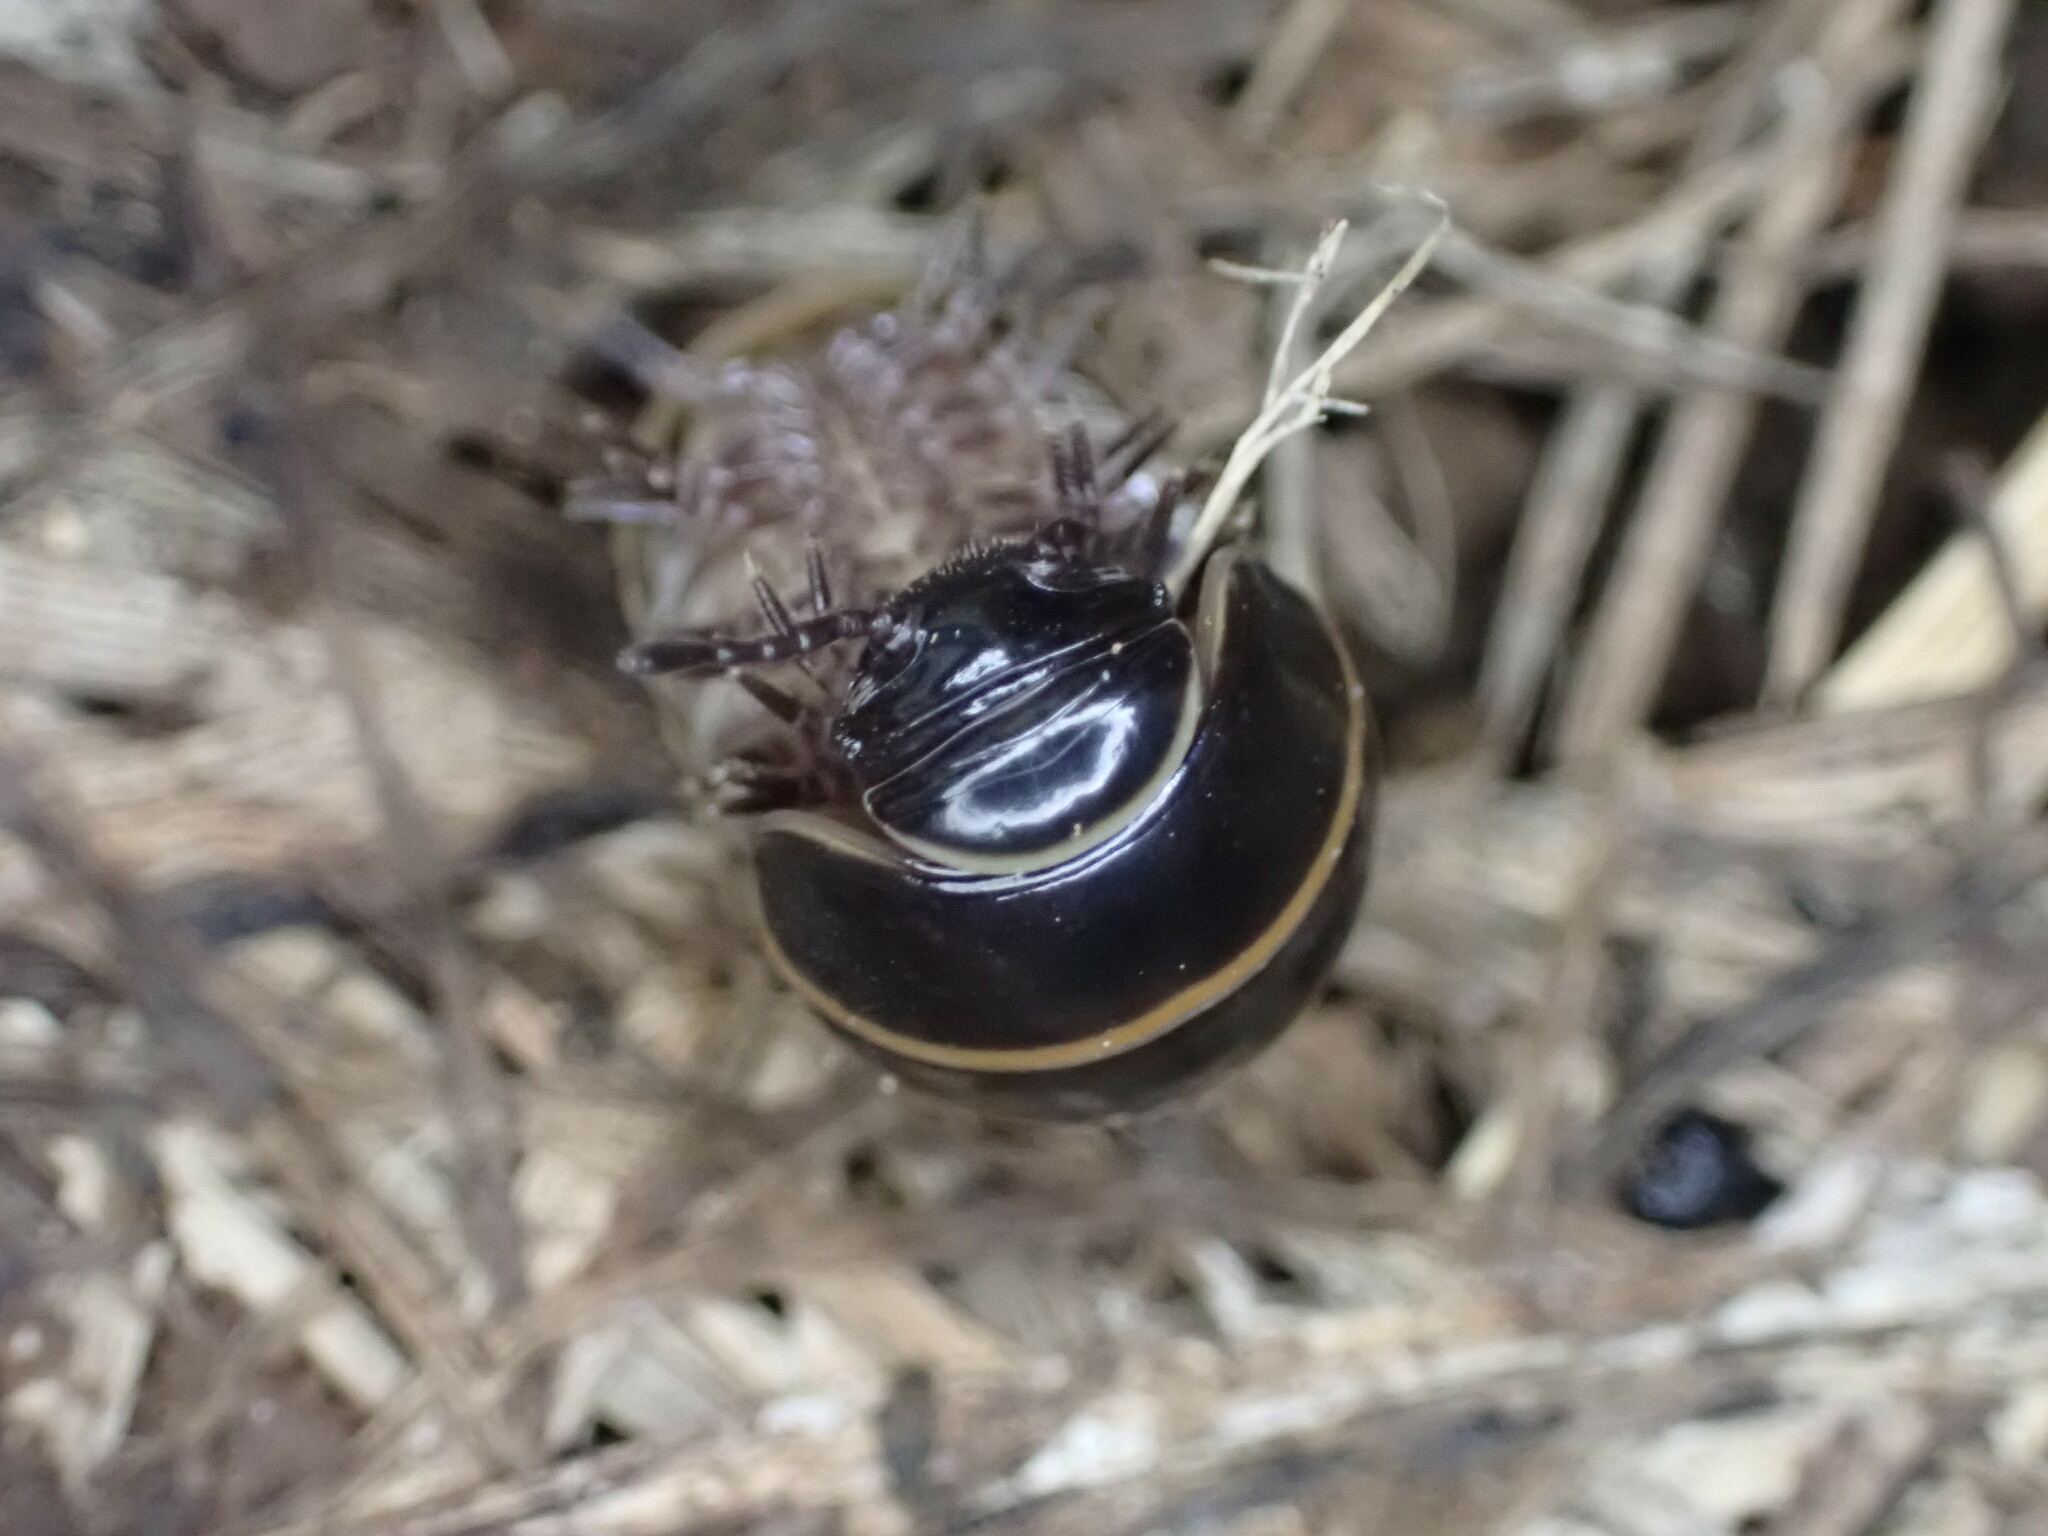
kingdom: Animalia
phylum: Arthropoda
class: Diplopoda
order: Glomerida
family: Glomeridae
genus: Glomeris
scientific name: Glomeris marginata
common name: Bordered pill millipede
